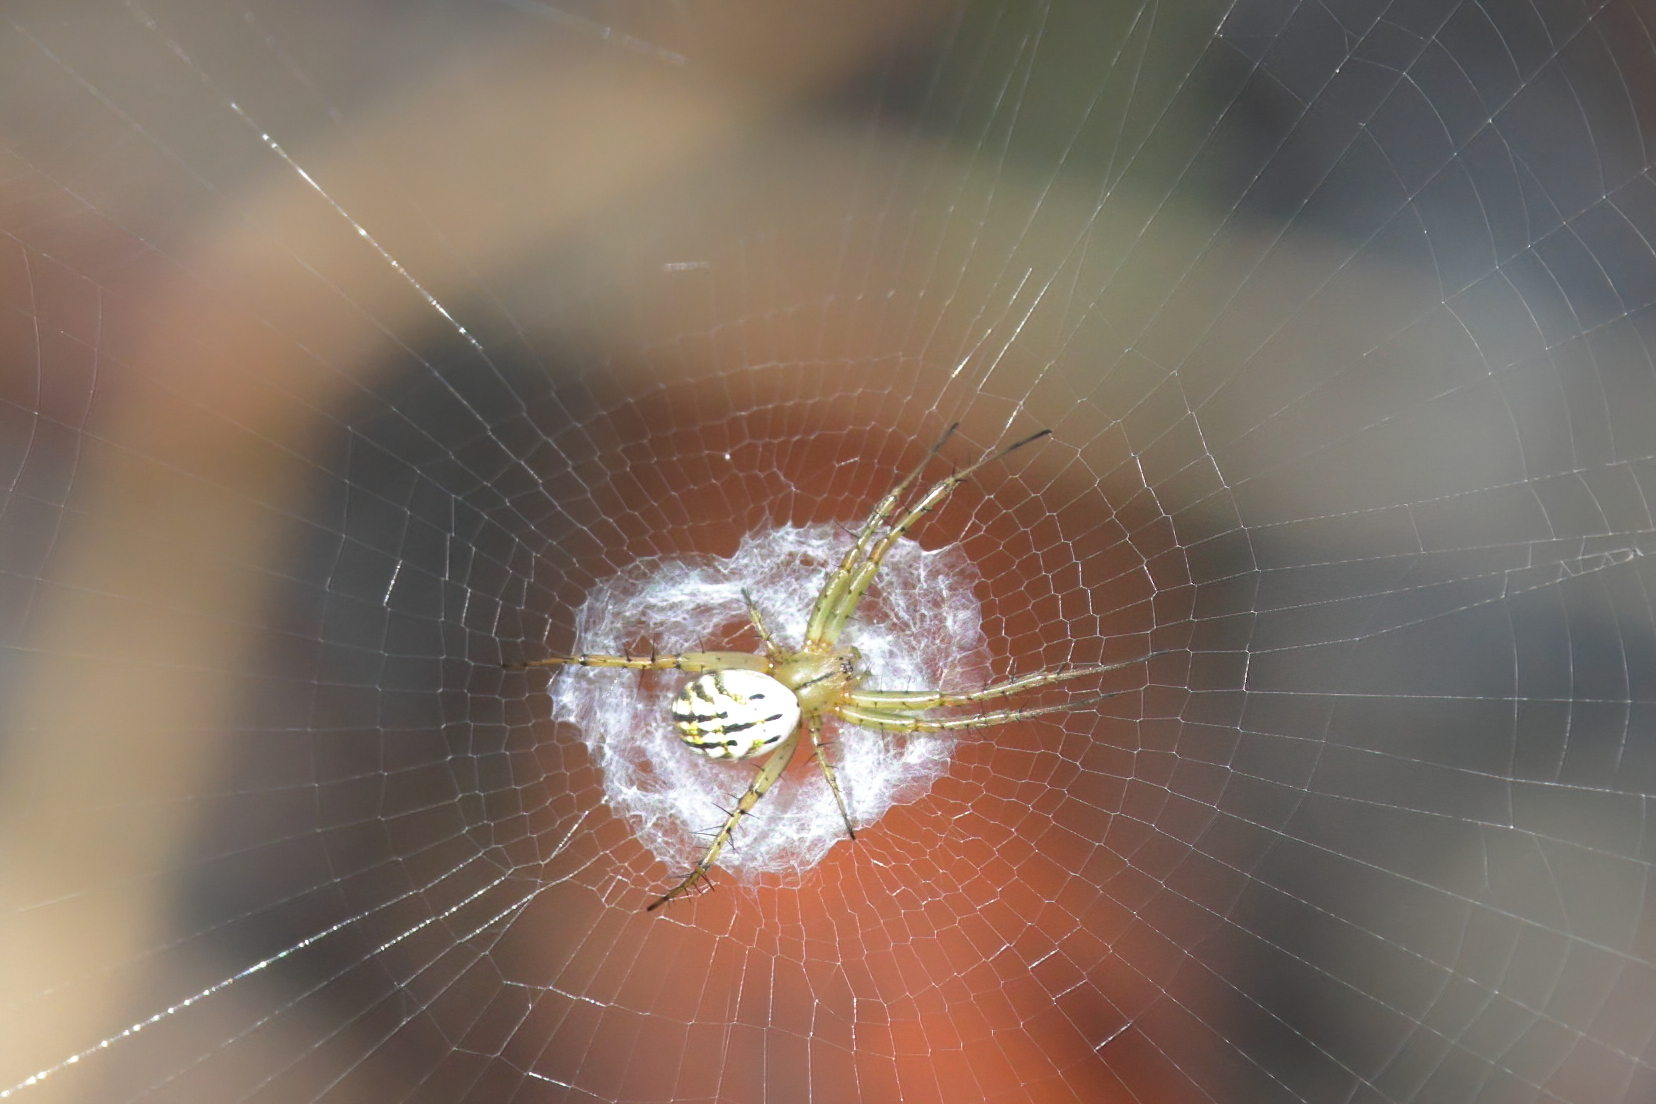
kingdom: Animalia
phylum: Arthropoda
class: Arachnida
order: Araneae
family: Araneidae
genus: Mangora
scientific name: Mangora gibberosa
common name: Lined orbweaver
